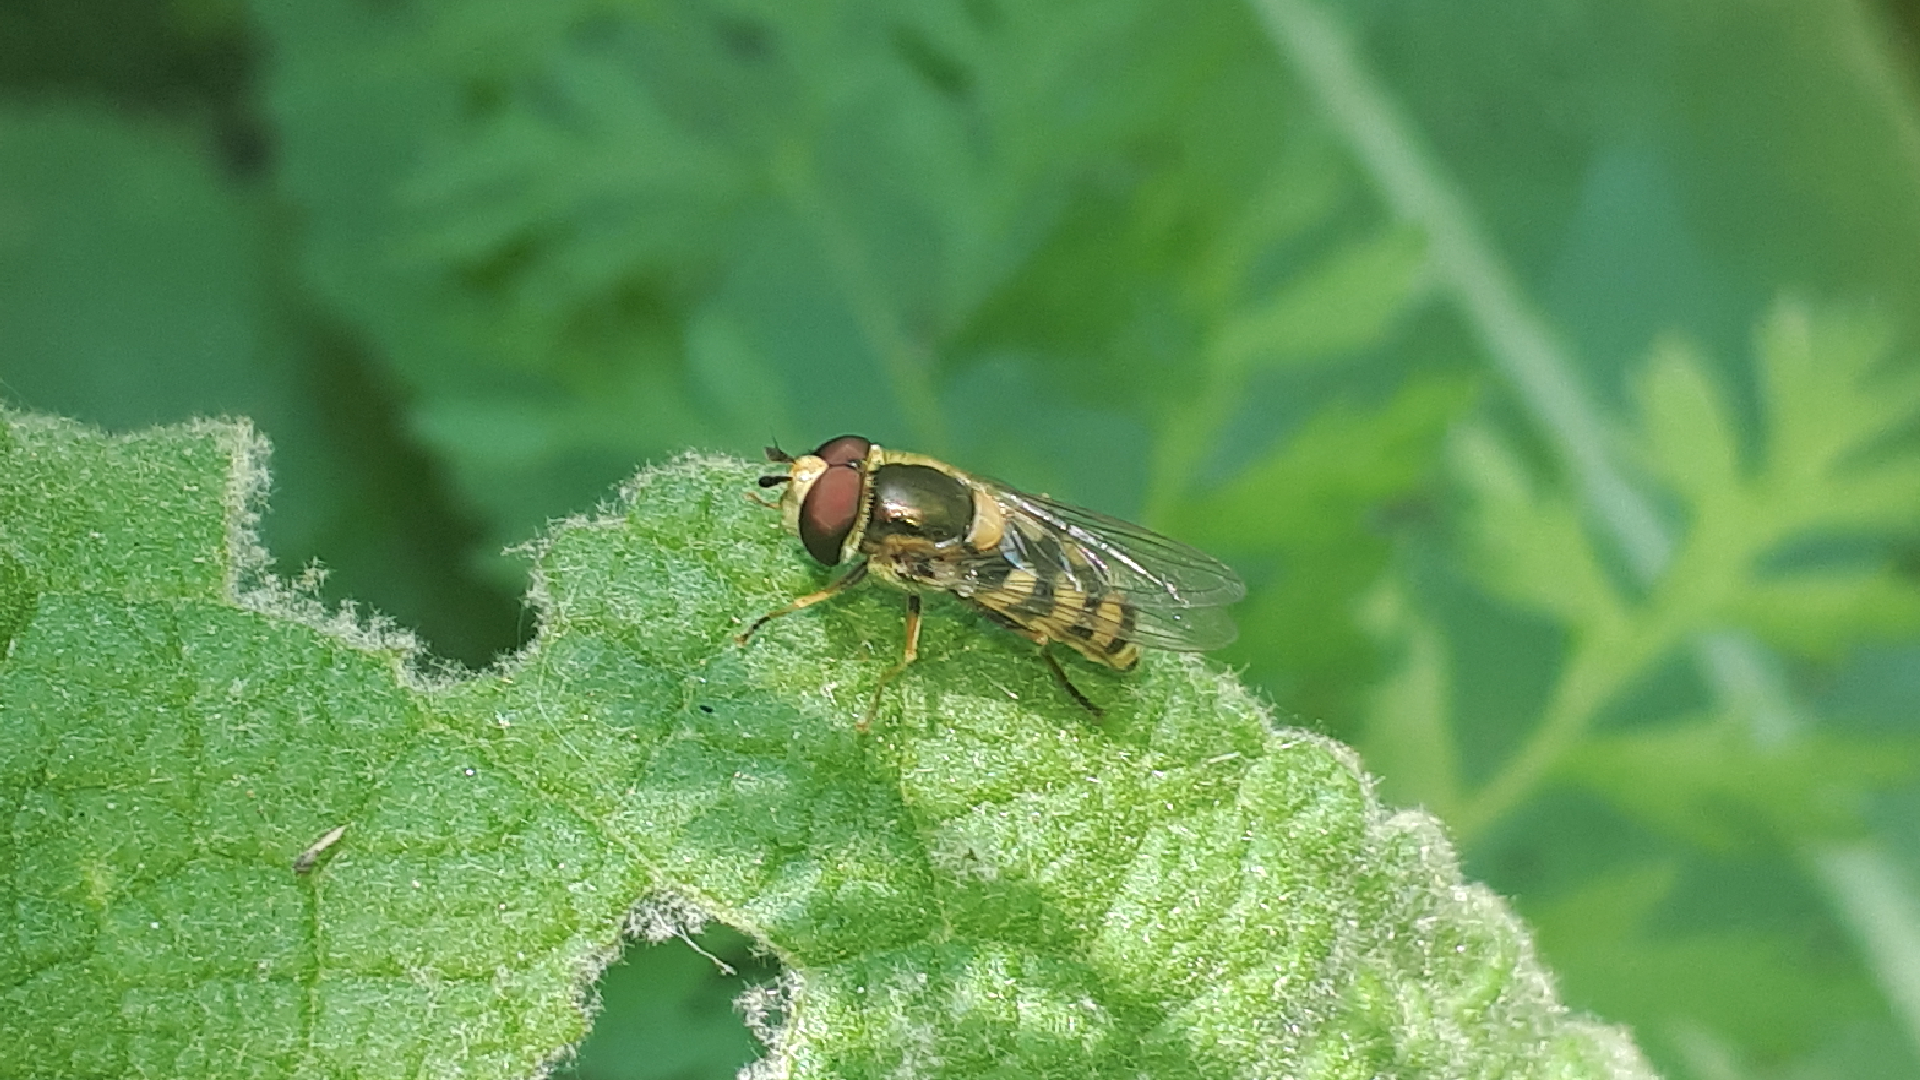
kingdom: Animalia
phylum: Arthropoda
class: Insecta
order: Diptera
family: Syrphidae
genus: Eupeodes
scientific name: Eupeodes corollae
